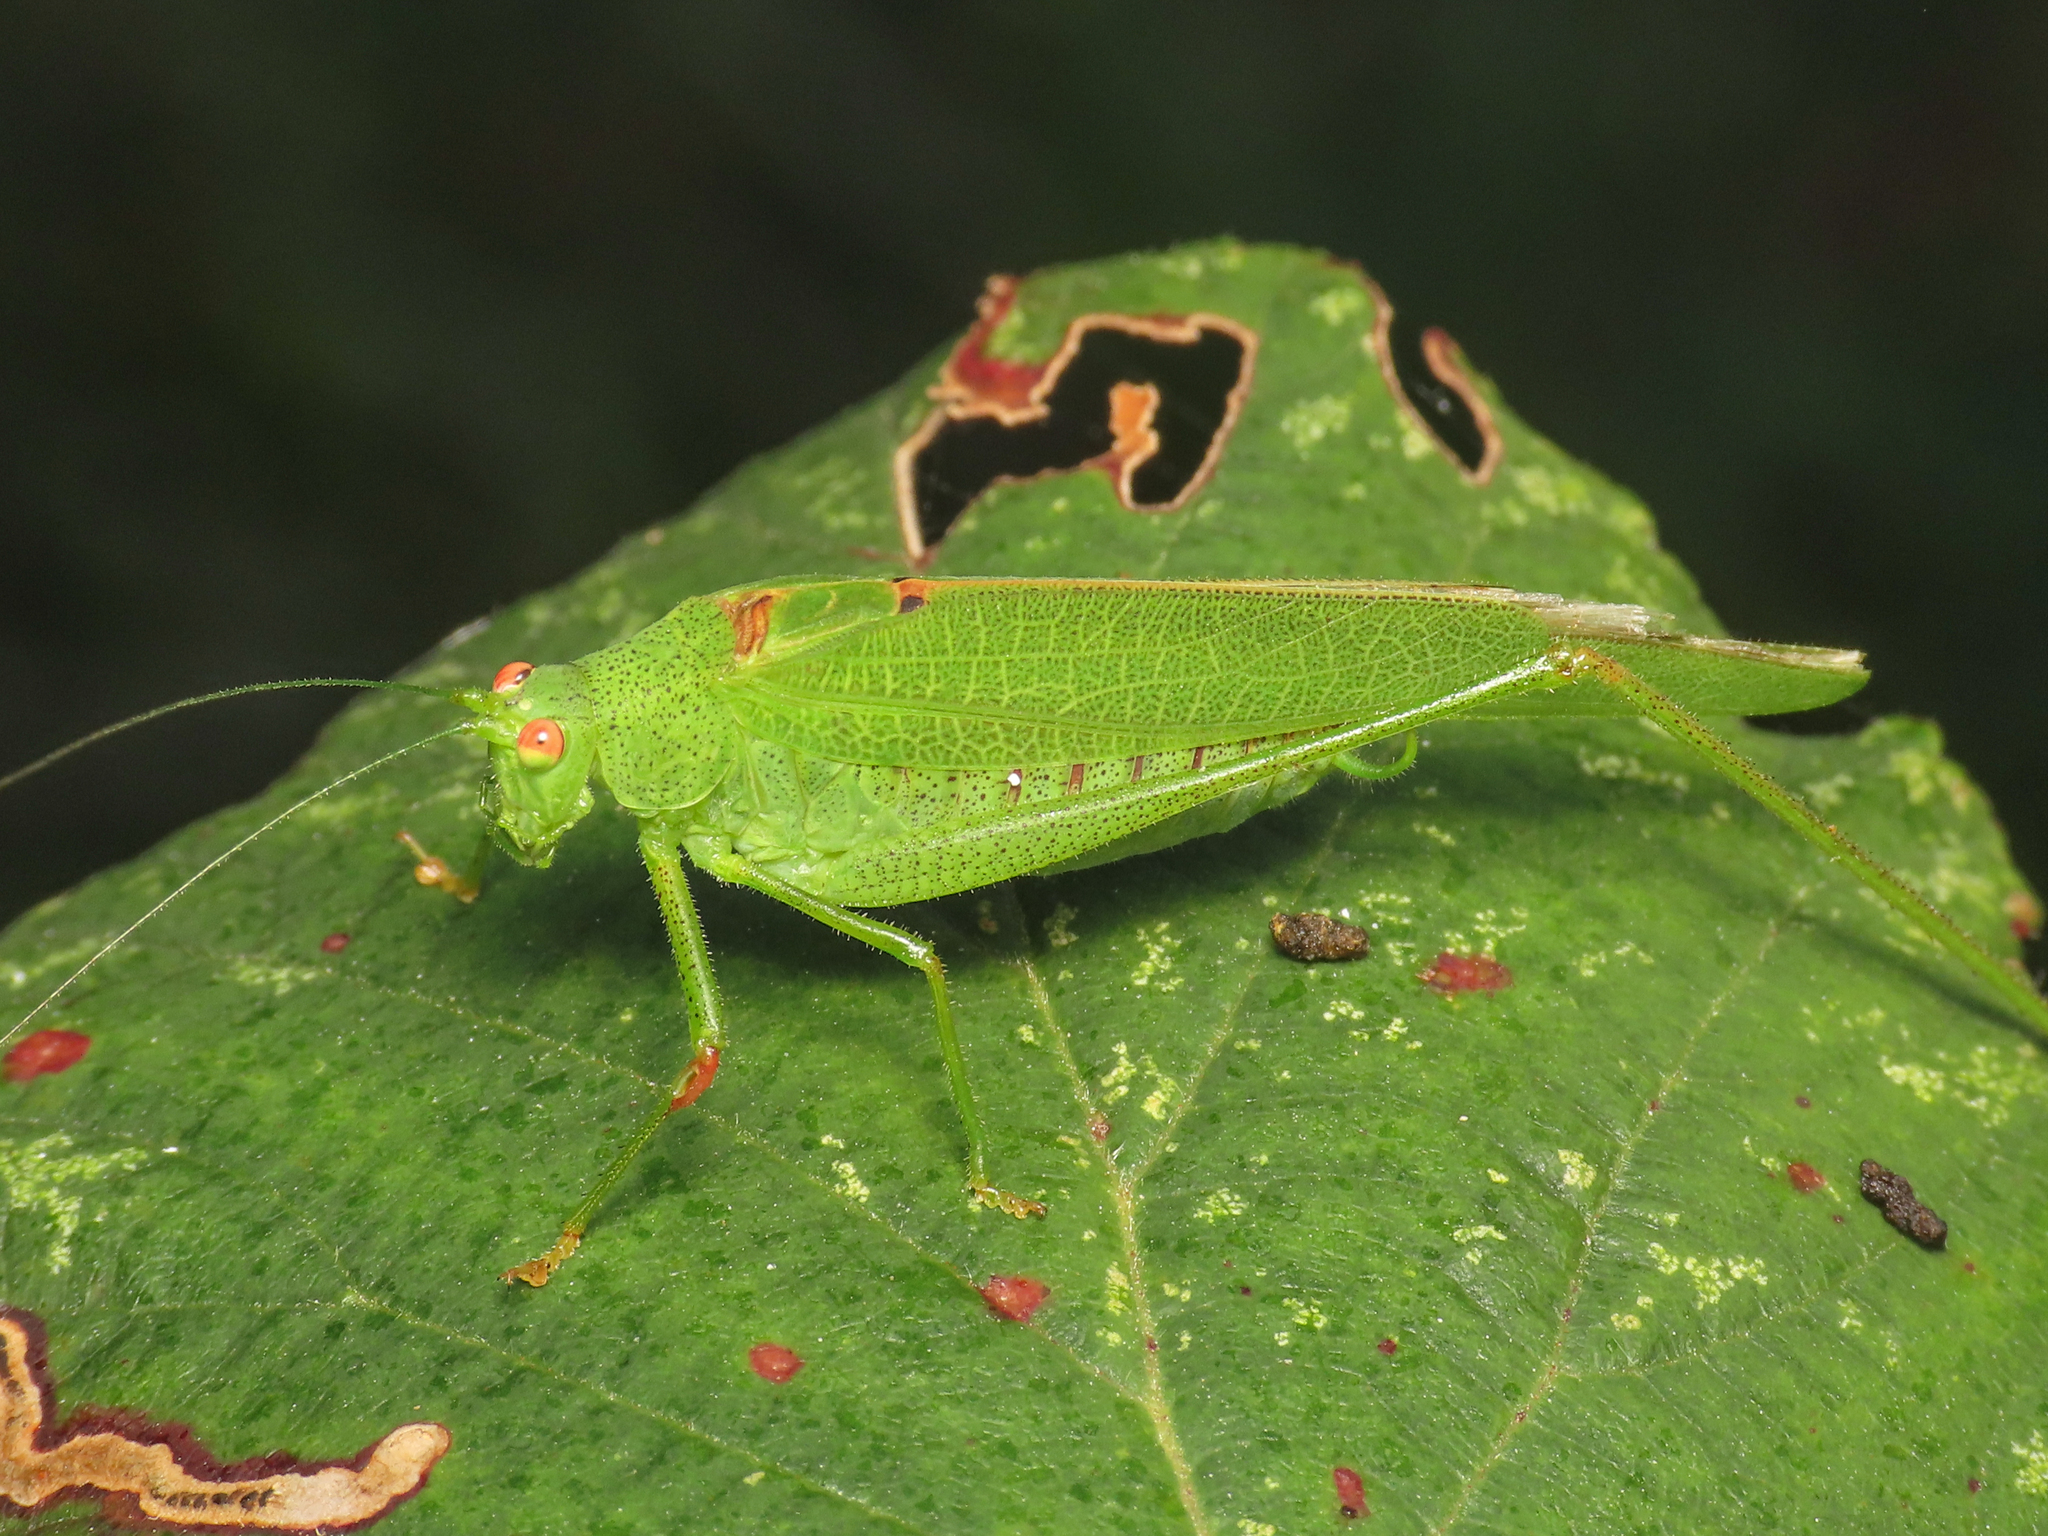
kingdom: Animalia
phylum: Arthropoda
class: Insecta
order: Orthoptera
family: Tettigoniidae
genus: Phaneroptera
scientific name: Phaneroptera nana
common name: Southern sickle bush-cricket
